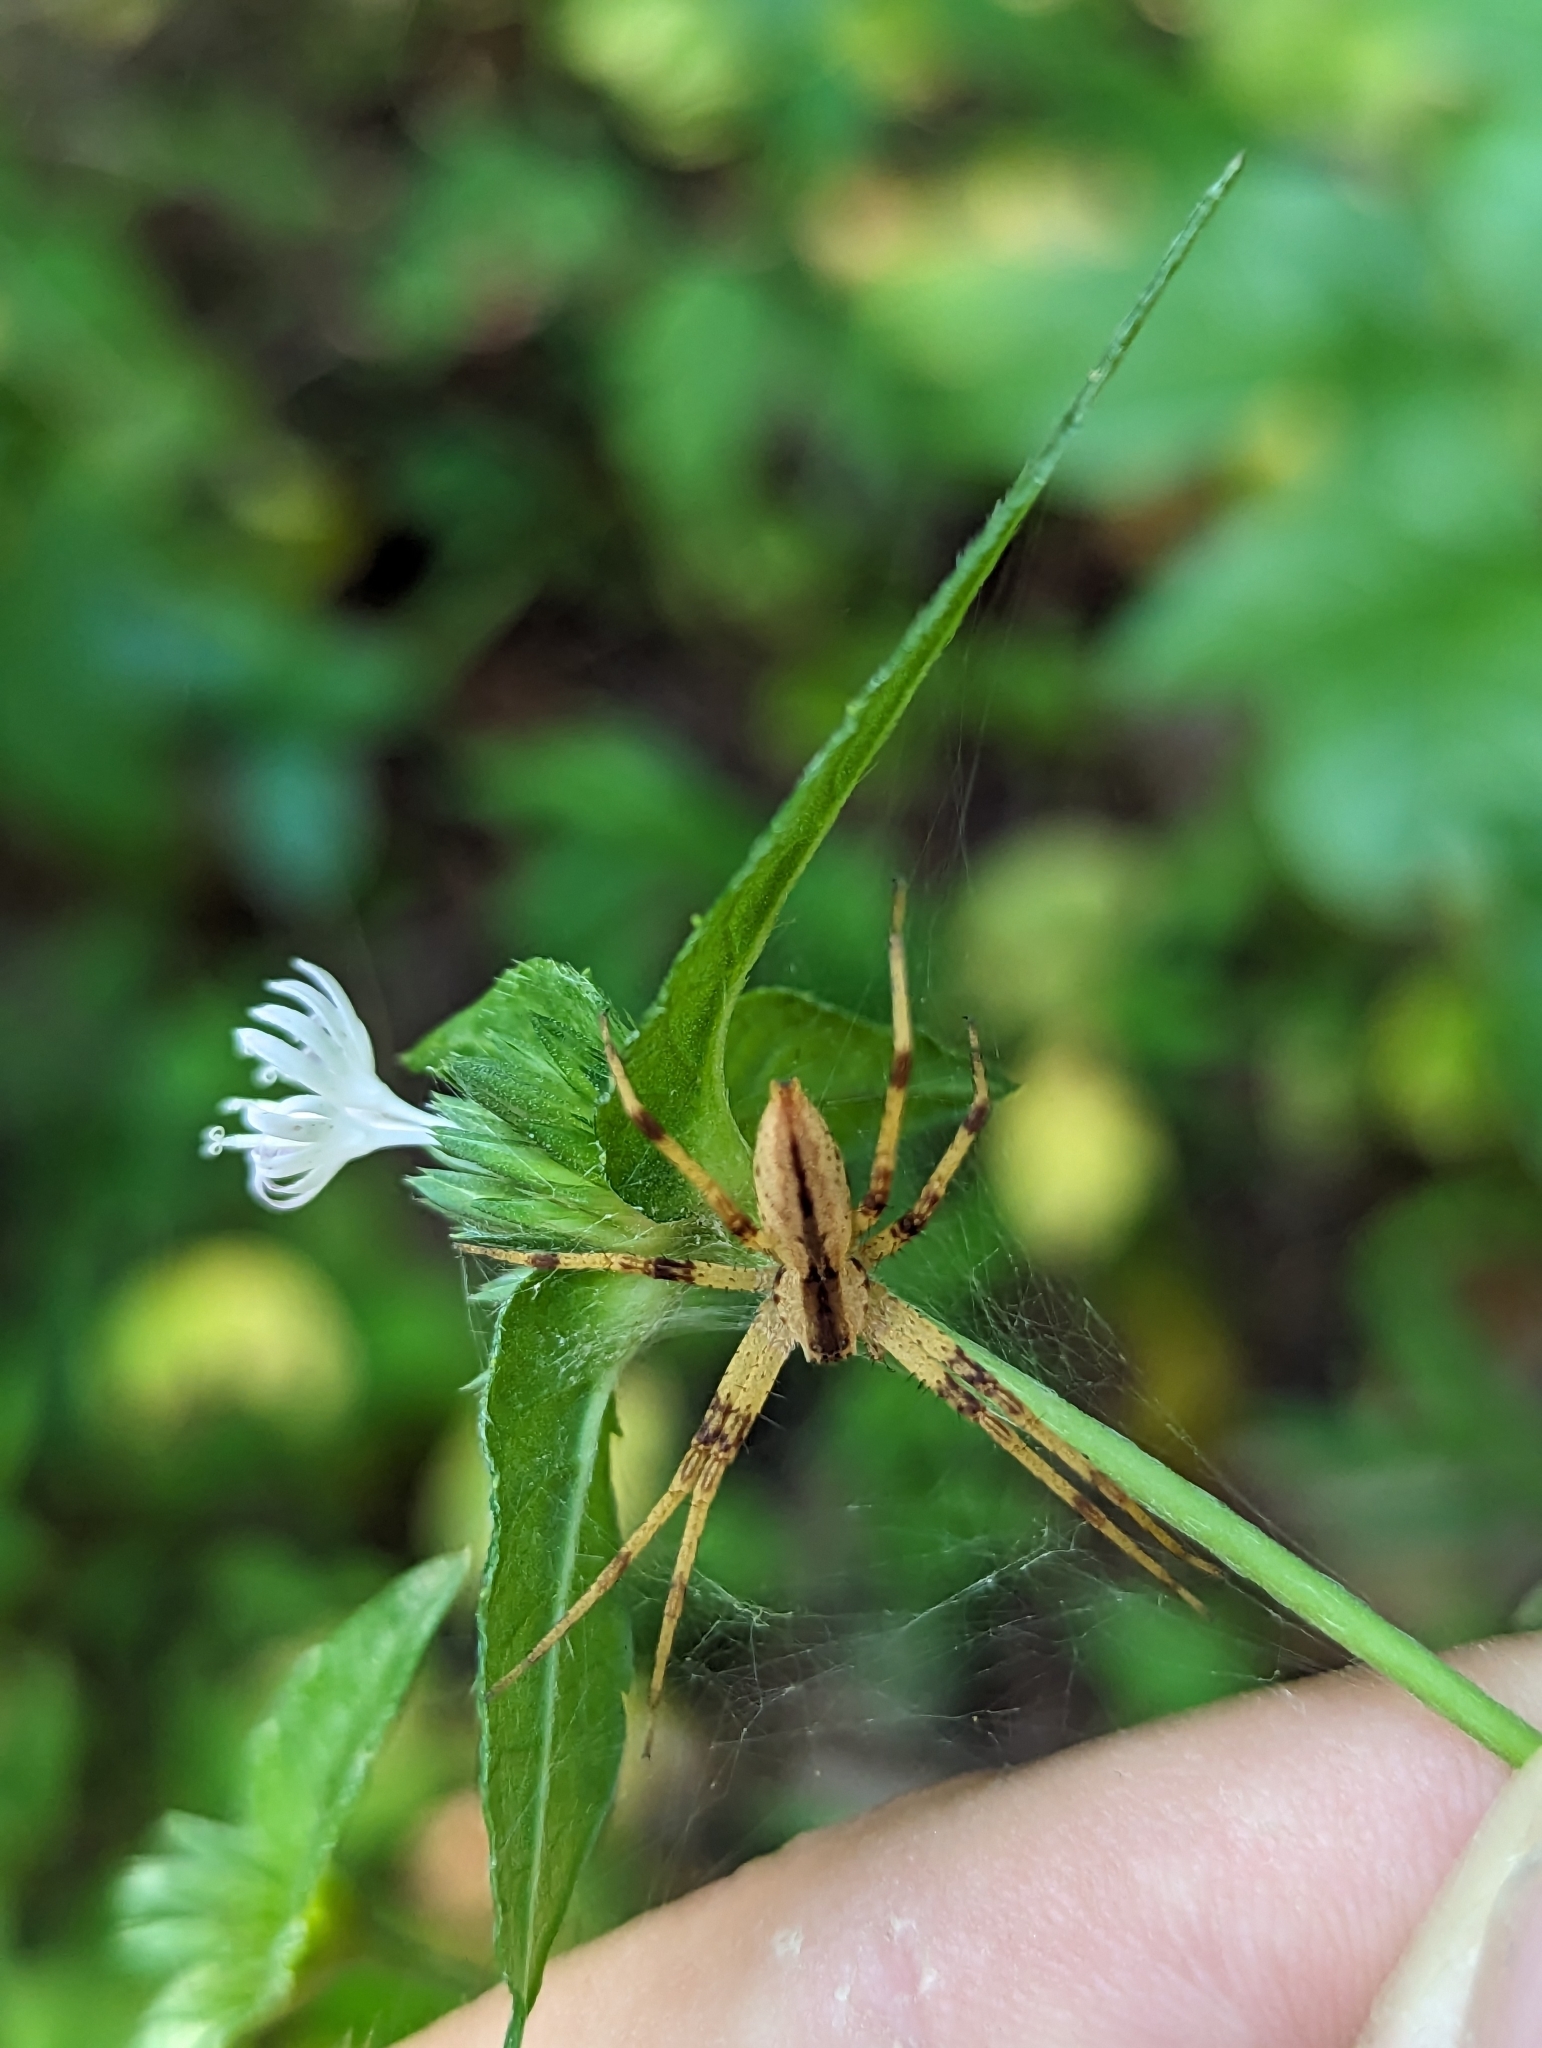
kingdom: Animalia
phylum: Arthropoda
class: Arachnida
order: Araneae
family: Pisauridae
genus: Pisaurina
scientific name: Pisaurina mira
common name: American nursery web spider
